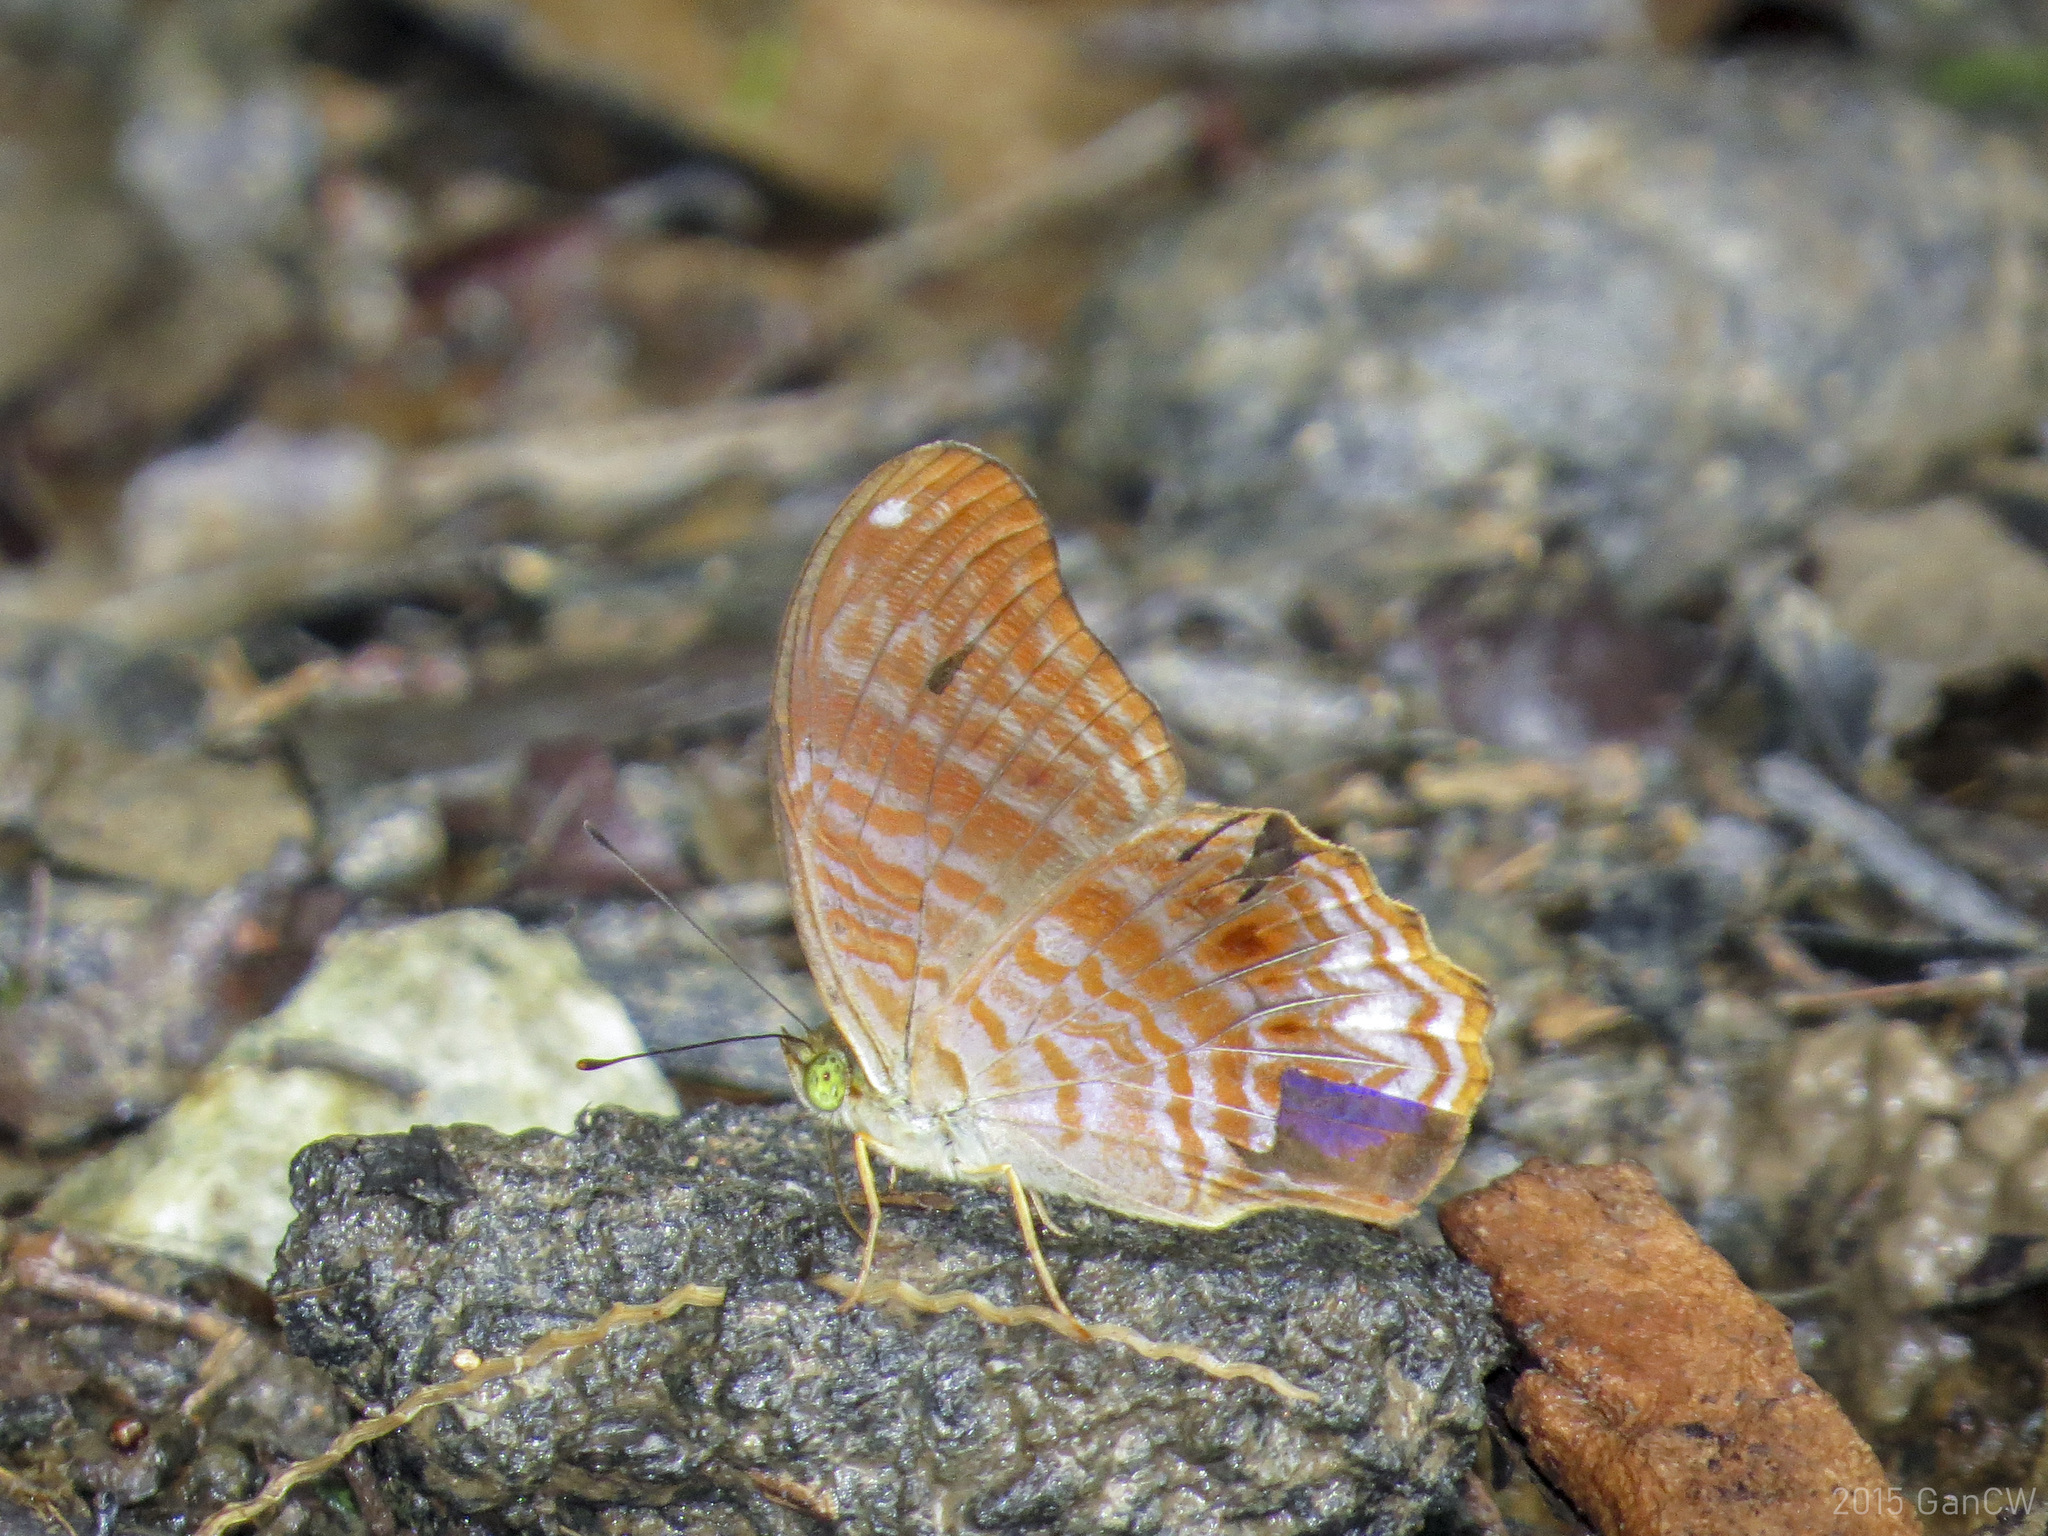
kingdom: Animalia
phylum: Arthropoda
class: Insecta
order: Lepidoptera
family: Nymphalidae
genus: Terinos
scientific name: Terinos terpander
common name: Royal assyrian
